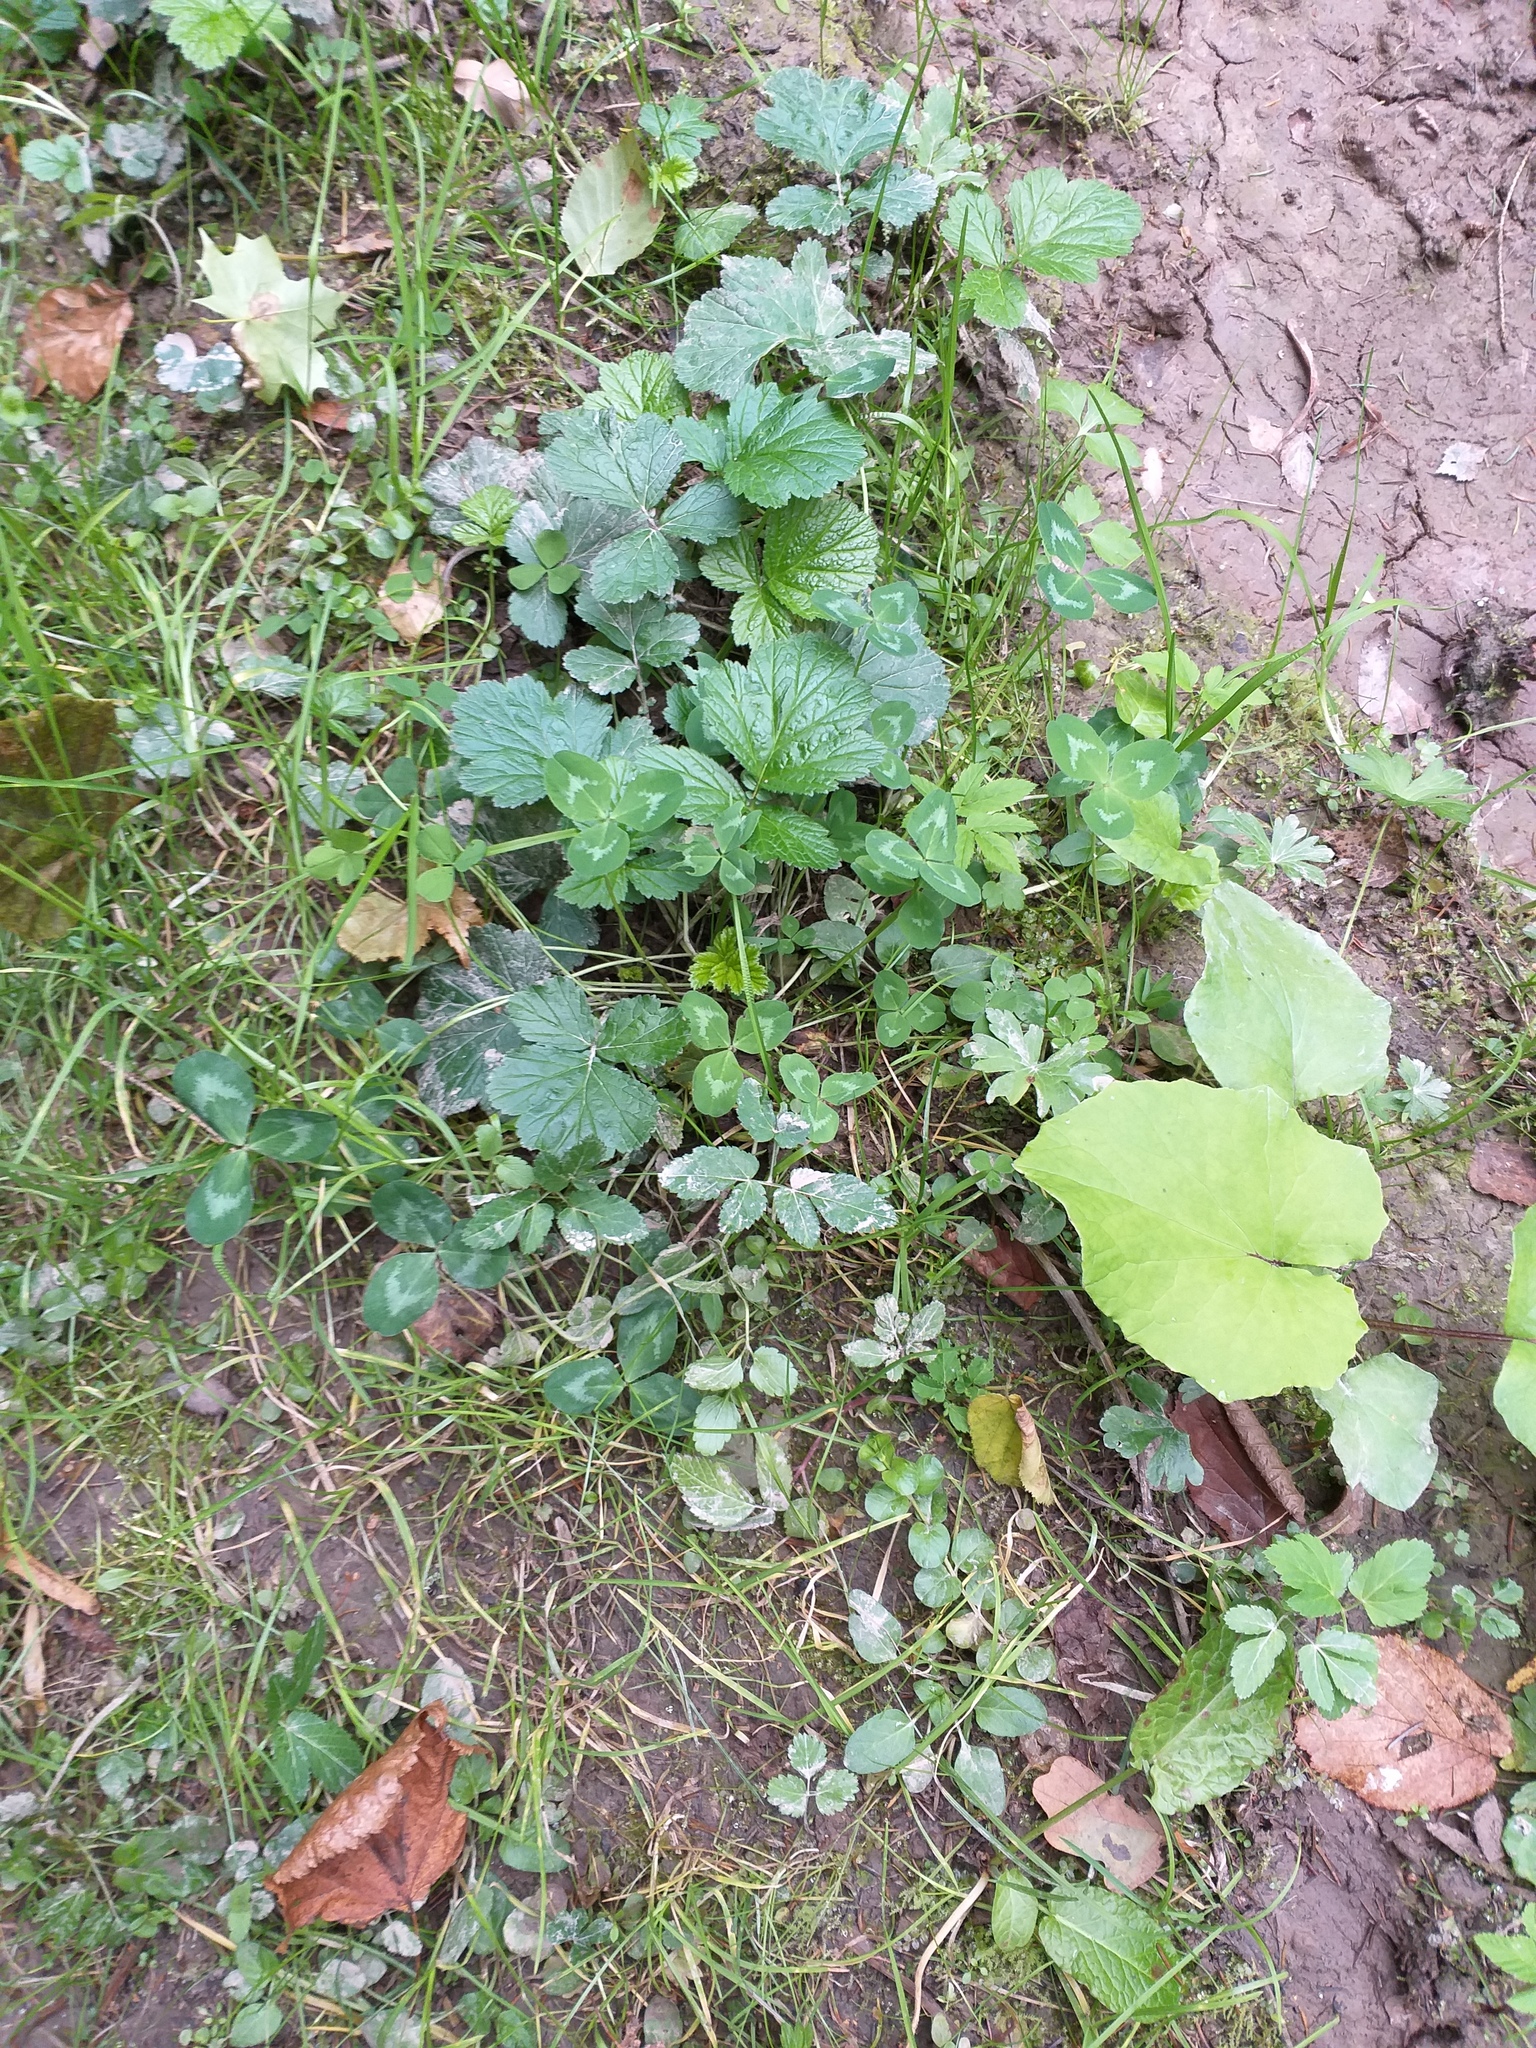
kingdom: Plantae
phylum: Tracheophyta
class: Magnoliopsida
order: Fabales
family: Fabaceae
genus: Trifolium
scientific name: Trifolium pratense
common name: Red clover
